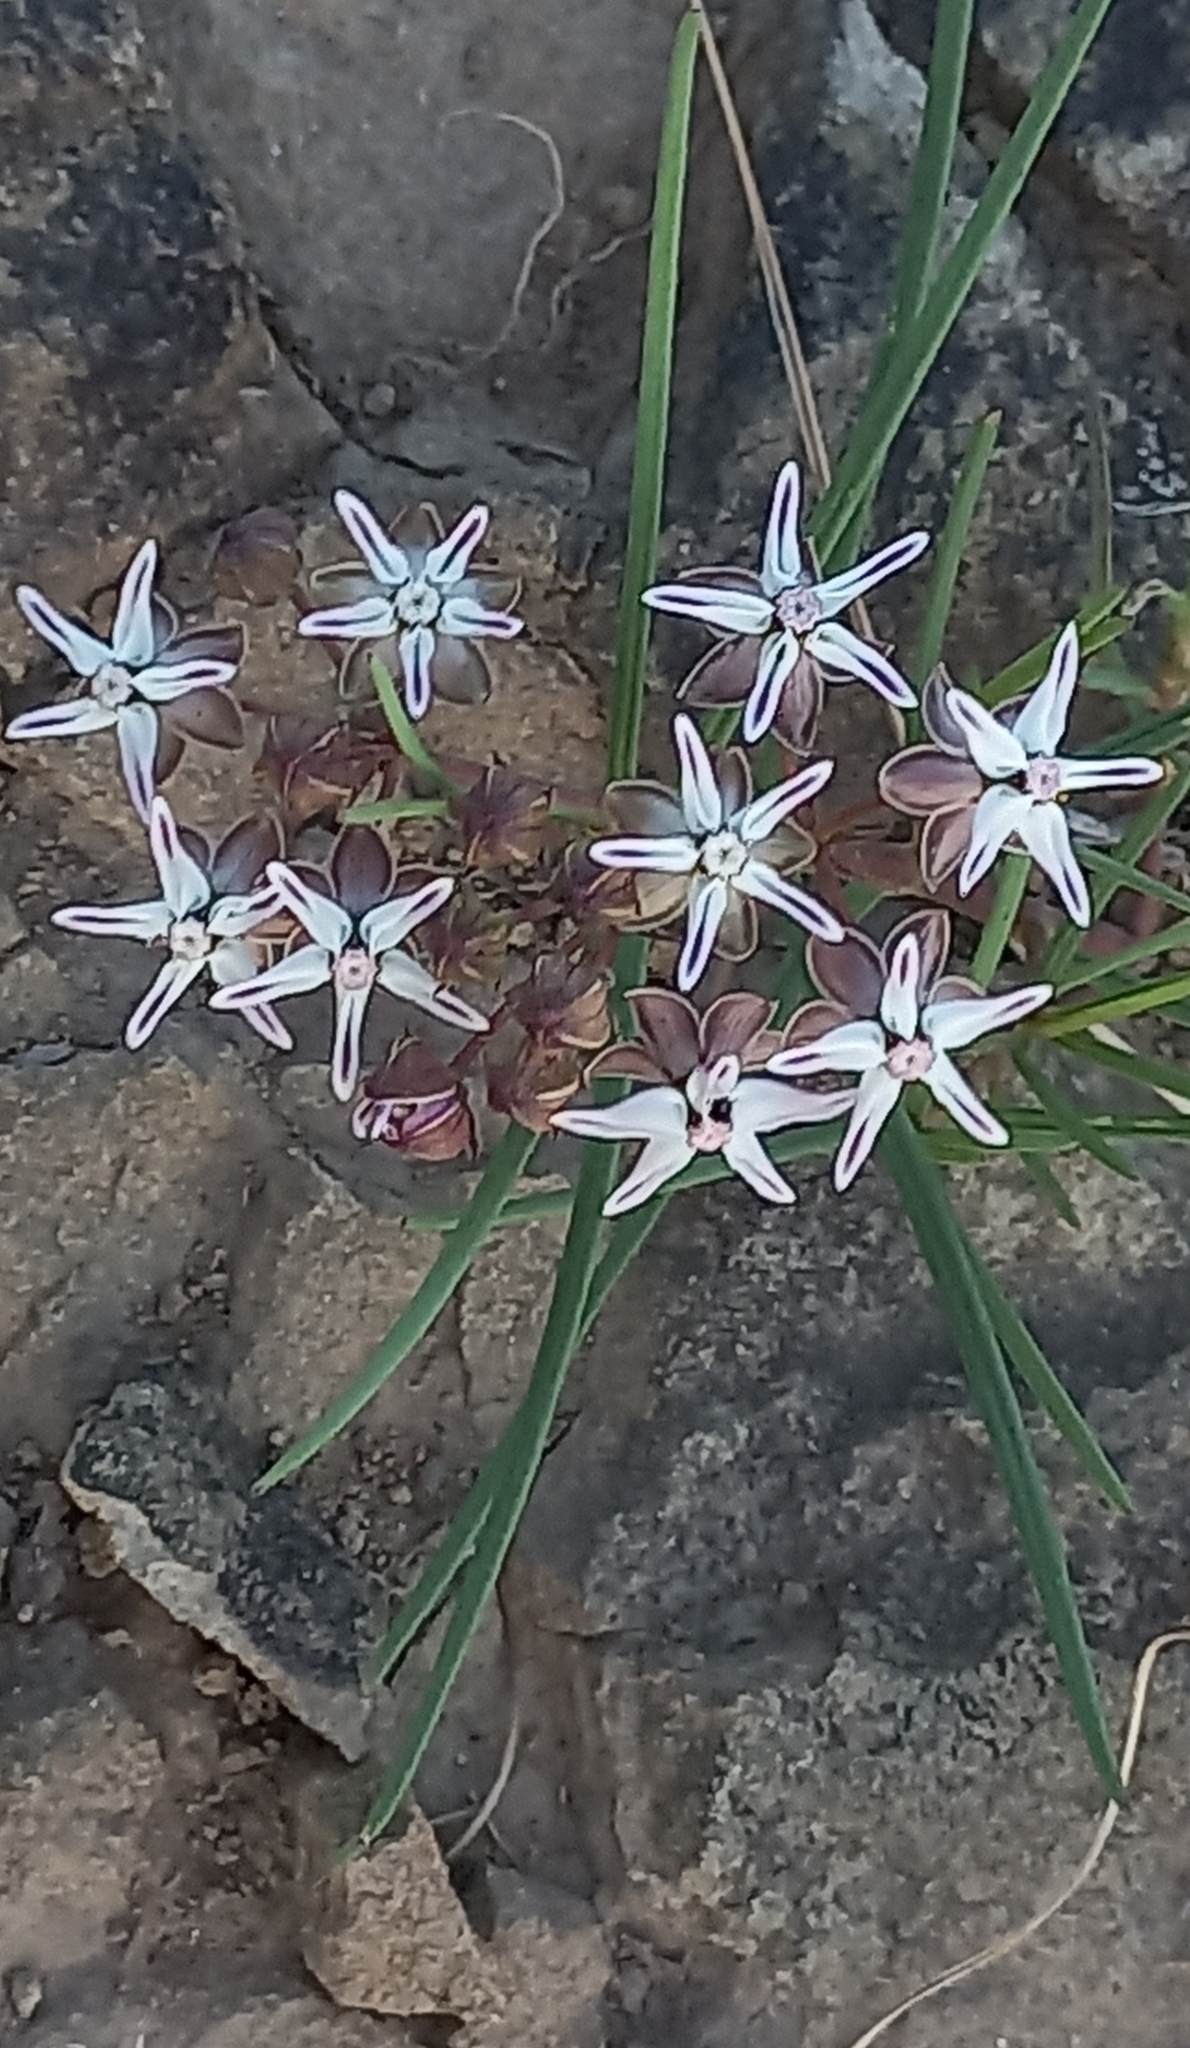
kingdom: Plantae
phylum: Tracheophyta
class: Magnoliopsida
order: Gentianales
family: Apocynaceae
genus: Asclepias
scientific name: Asclepias stellifera
